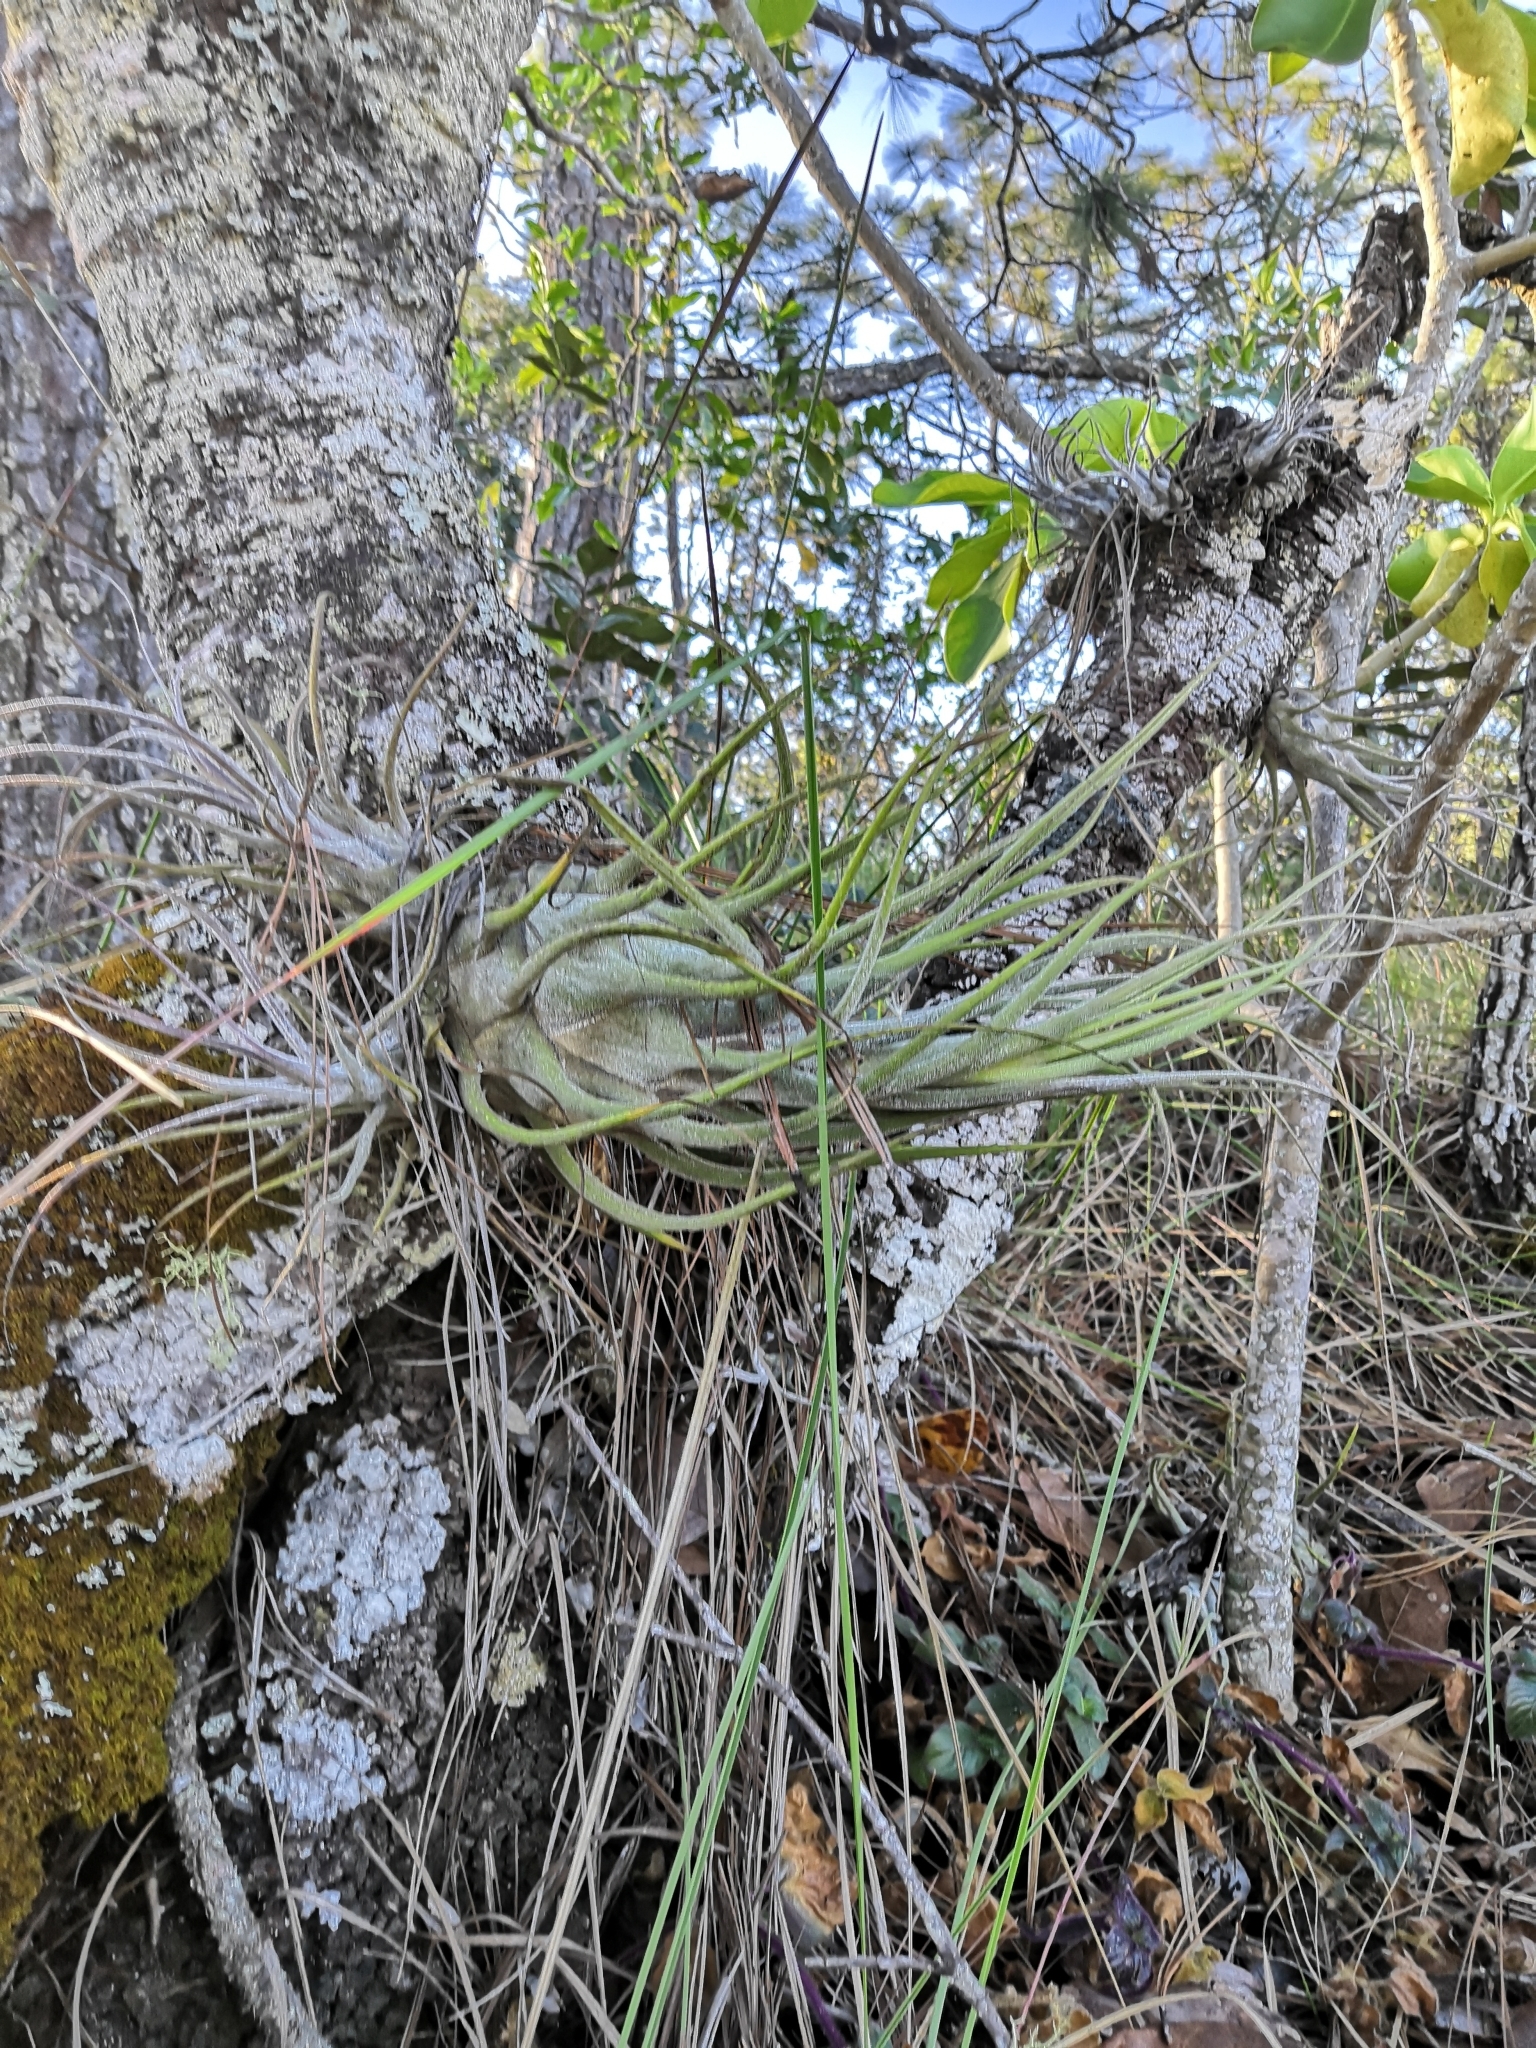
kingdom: Plantae
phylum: Tracheophyta
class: Liliopsida
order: Poales
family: Bromeliaceae
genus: Tillandsia
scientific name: Tillandsia seleriana
